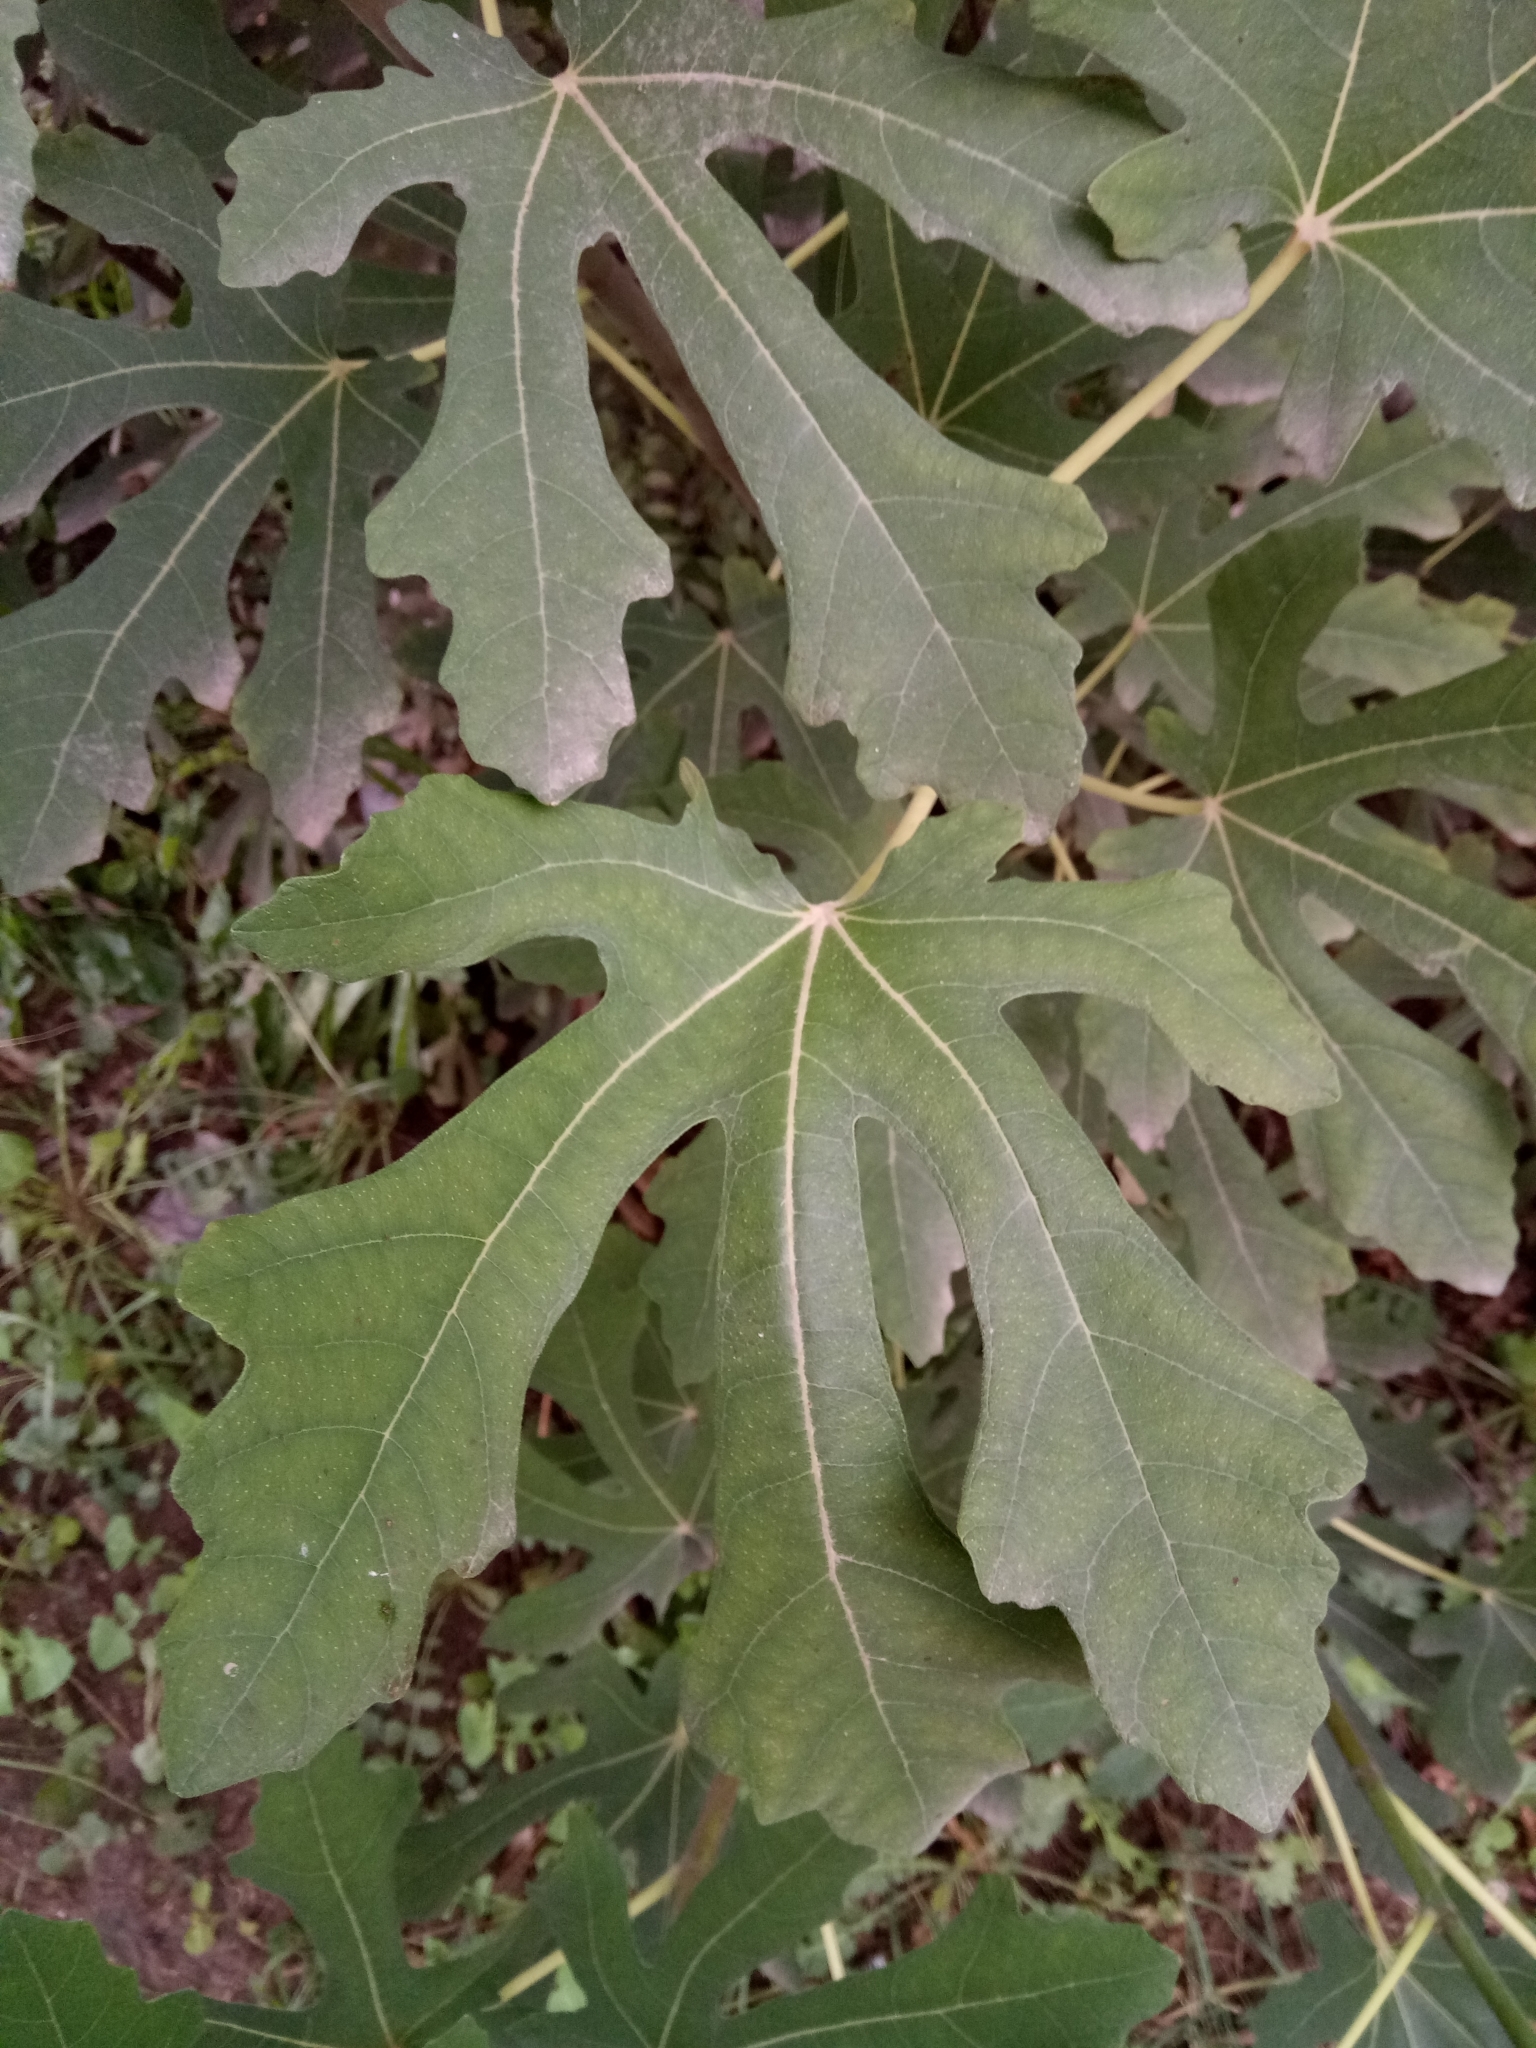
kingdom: Plantae
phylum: Tracheophyta
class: Magnoliopsida
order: Rosales
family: Moraceae
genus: Ficus
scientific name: Ficus carica
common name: Fig
